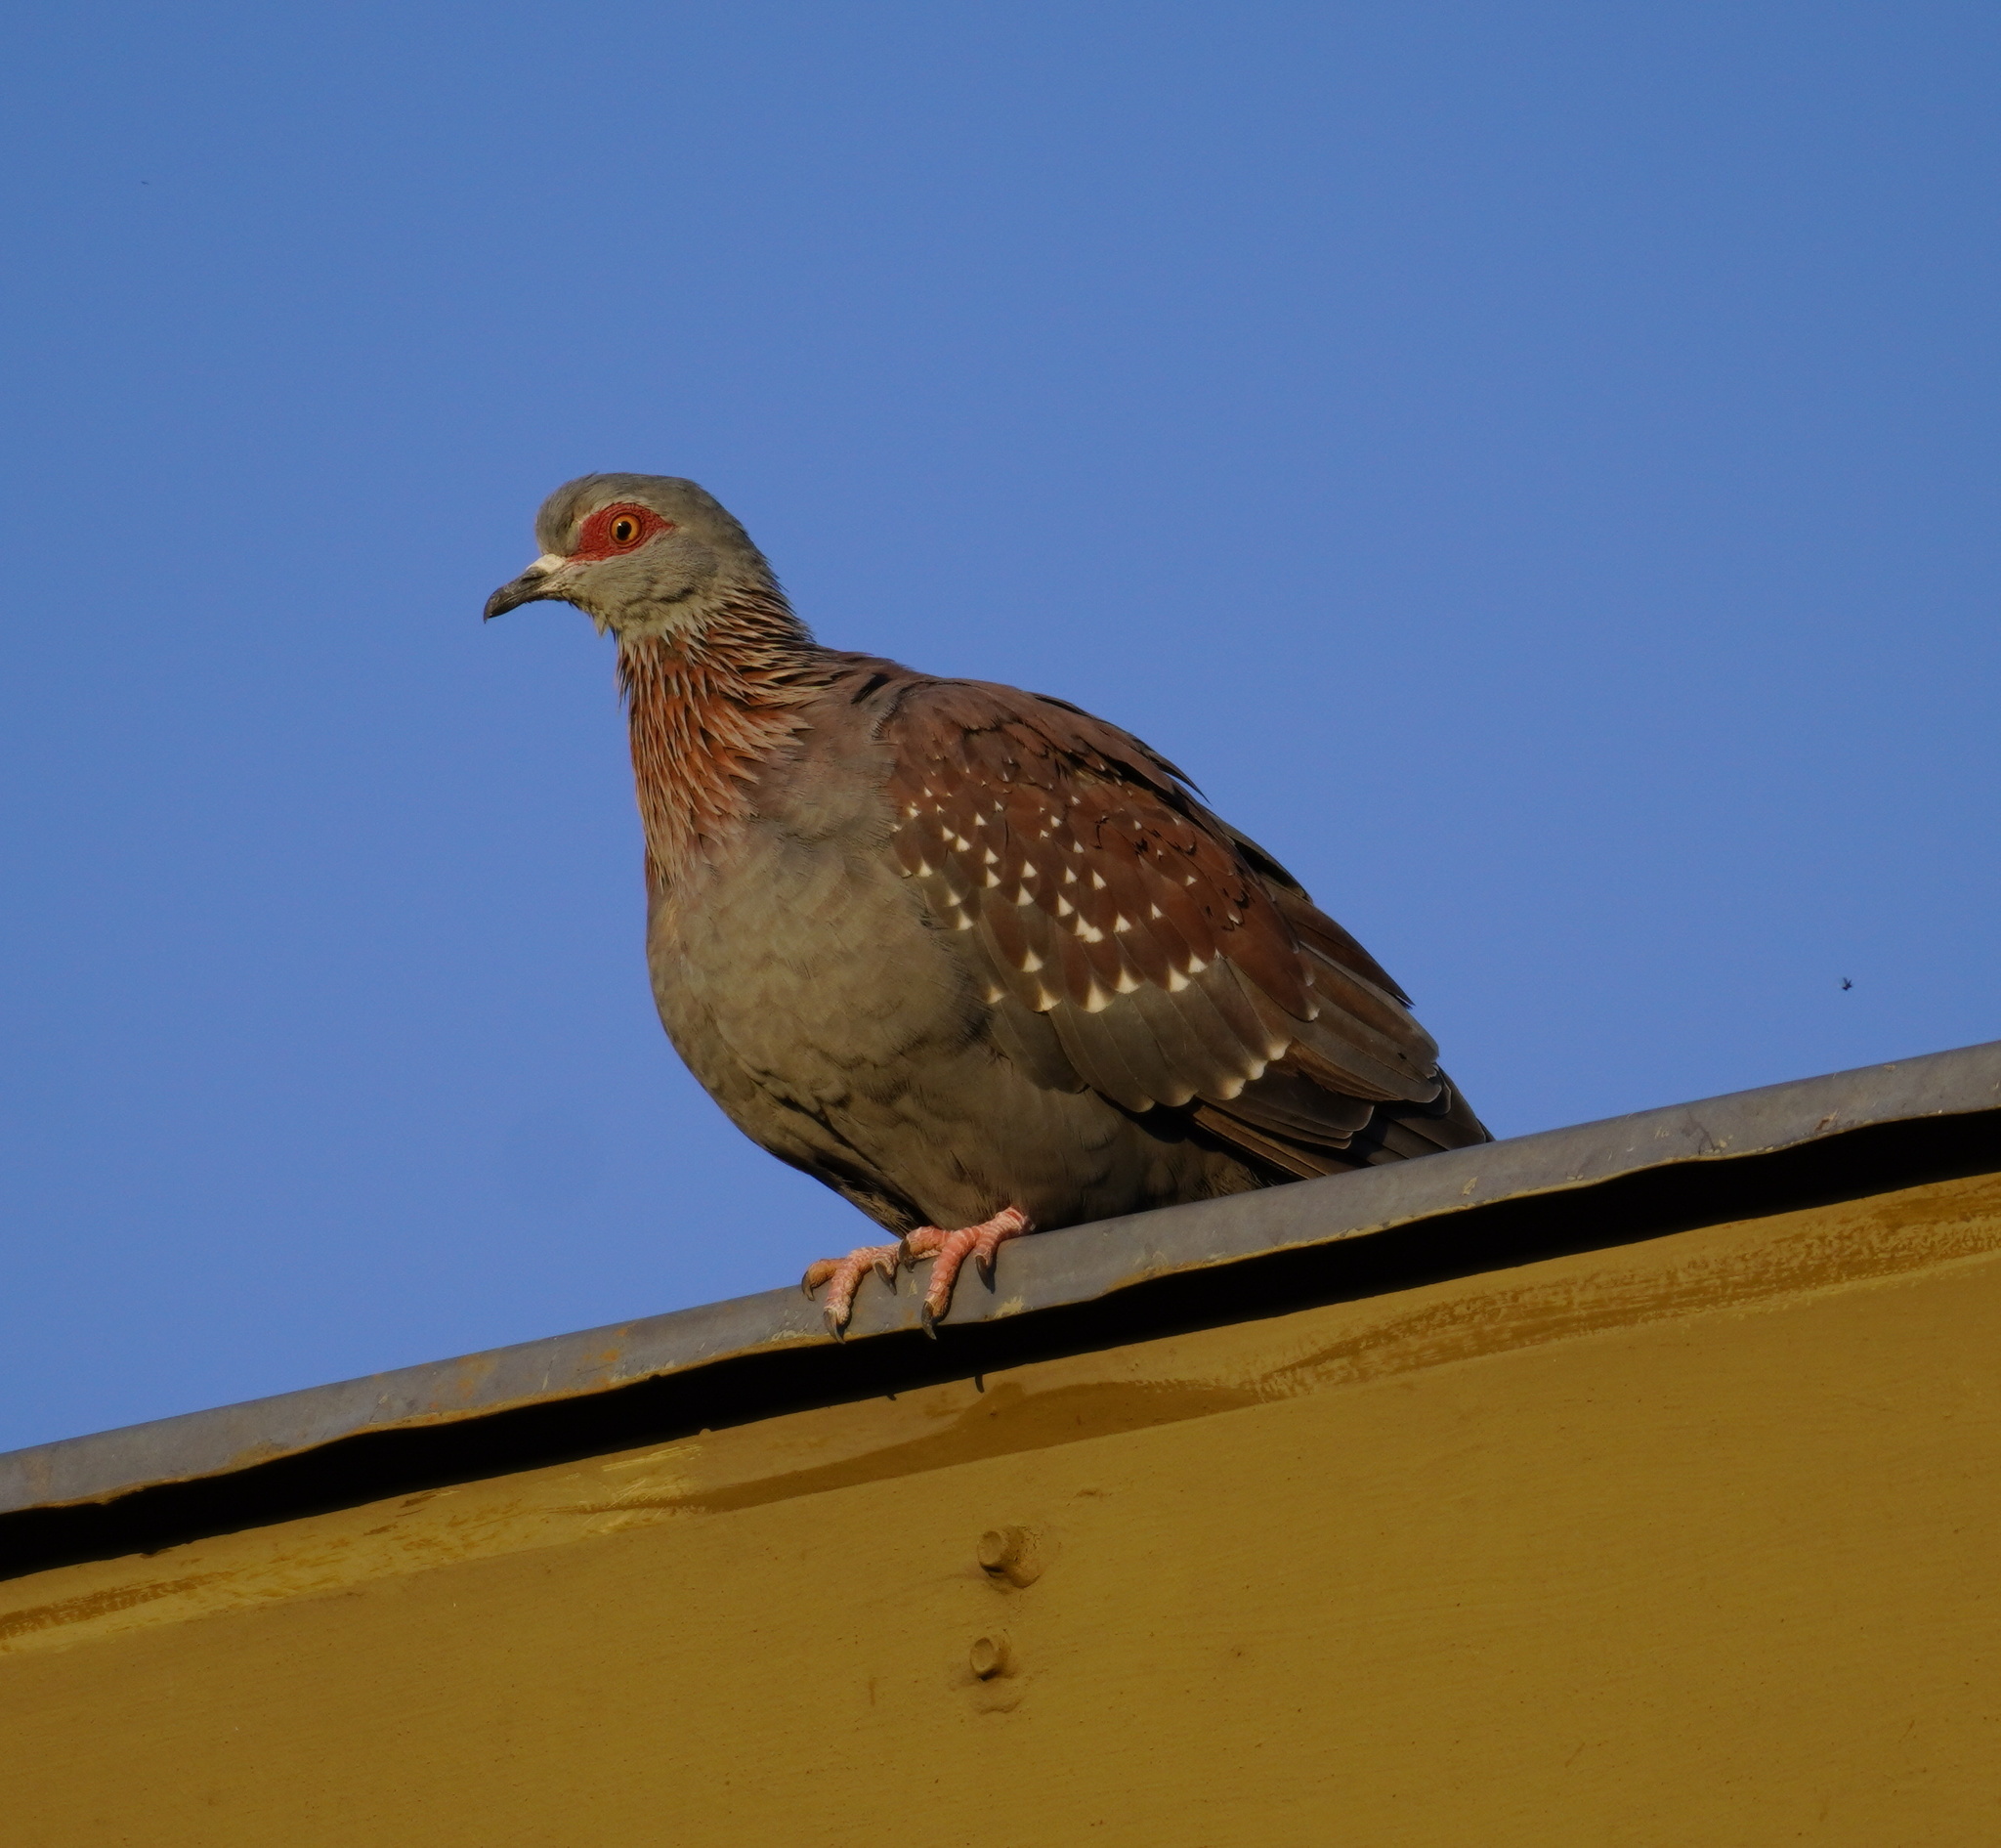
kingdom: Animalia
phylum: Chordata
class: Aves
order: Columbiformes
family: Columbidae
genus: Columba
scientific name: Columba guinea
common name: Speckled pigeon
